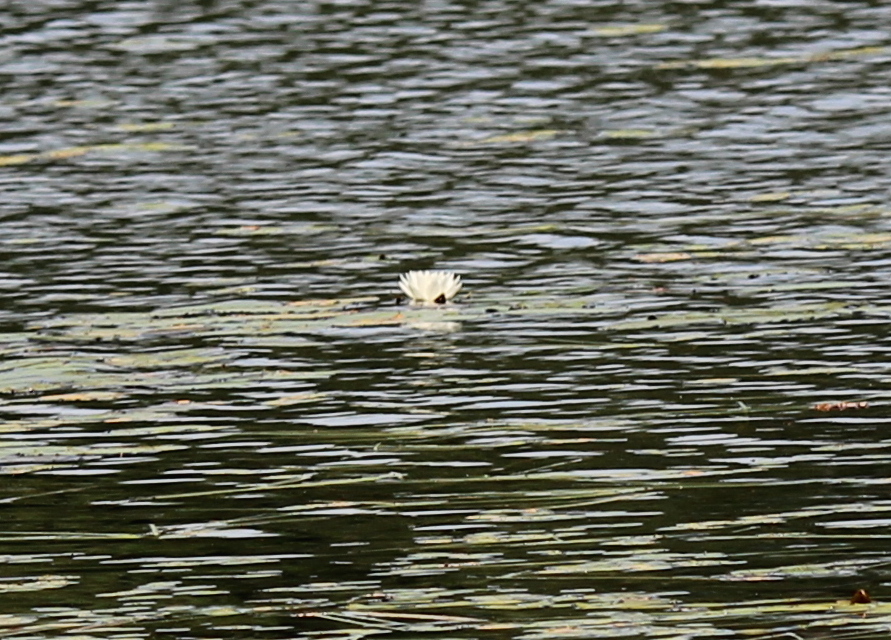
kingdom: Plantae
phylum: Tracheophyta
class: Magnoliopsida
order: Nymphaeales
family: Nymphaeaceae
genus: Nymphaea
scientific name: Nymphaea odorata
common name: Fragrant water-lily
